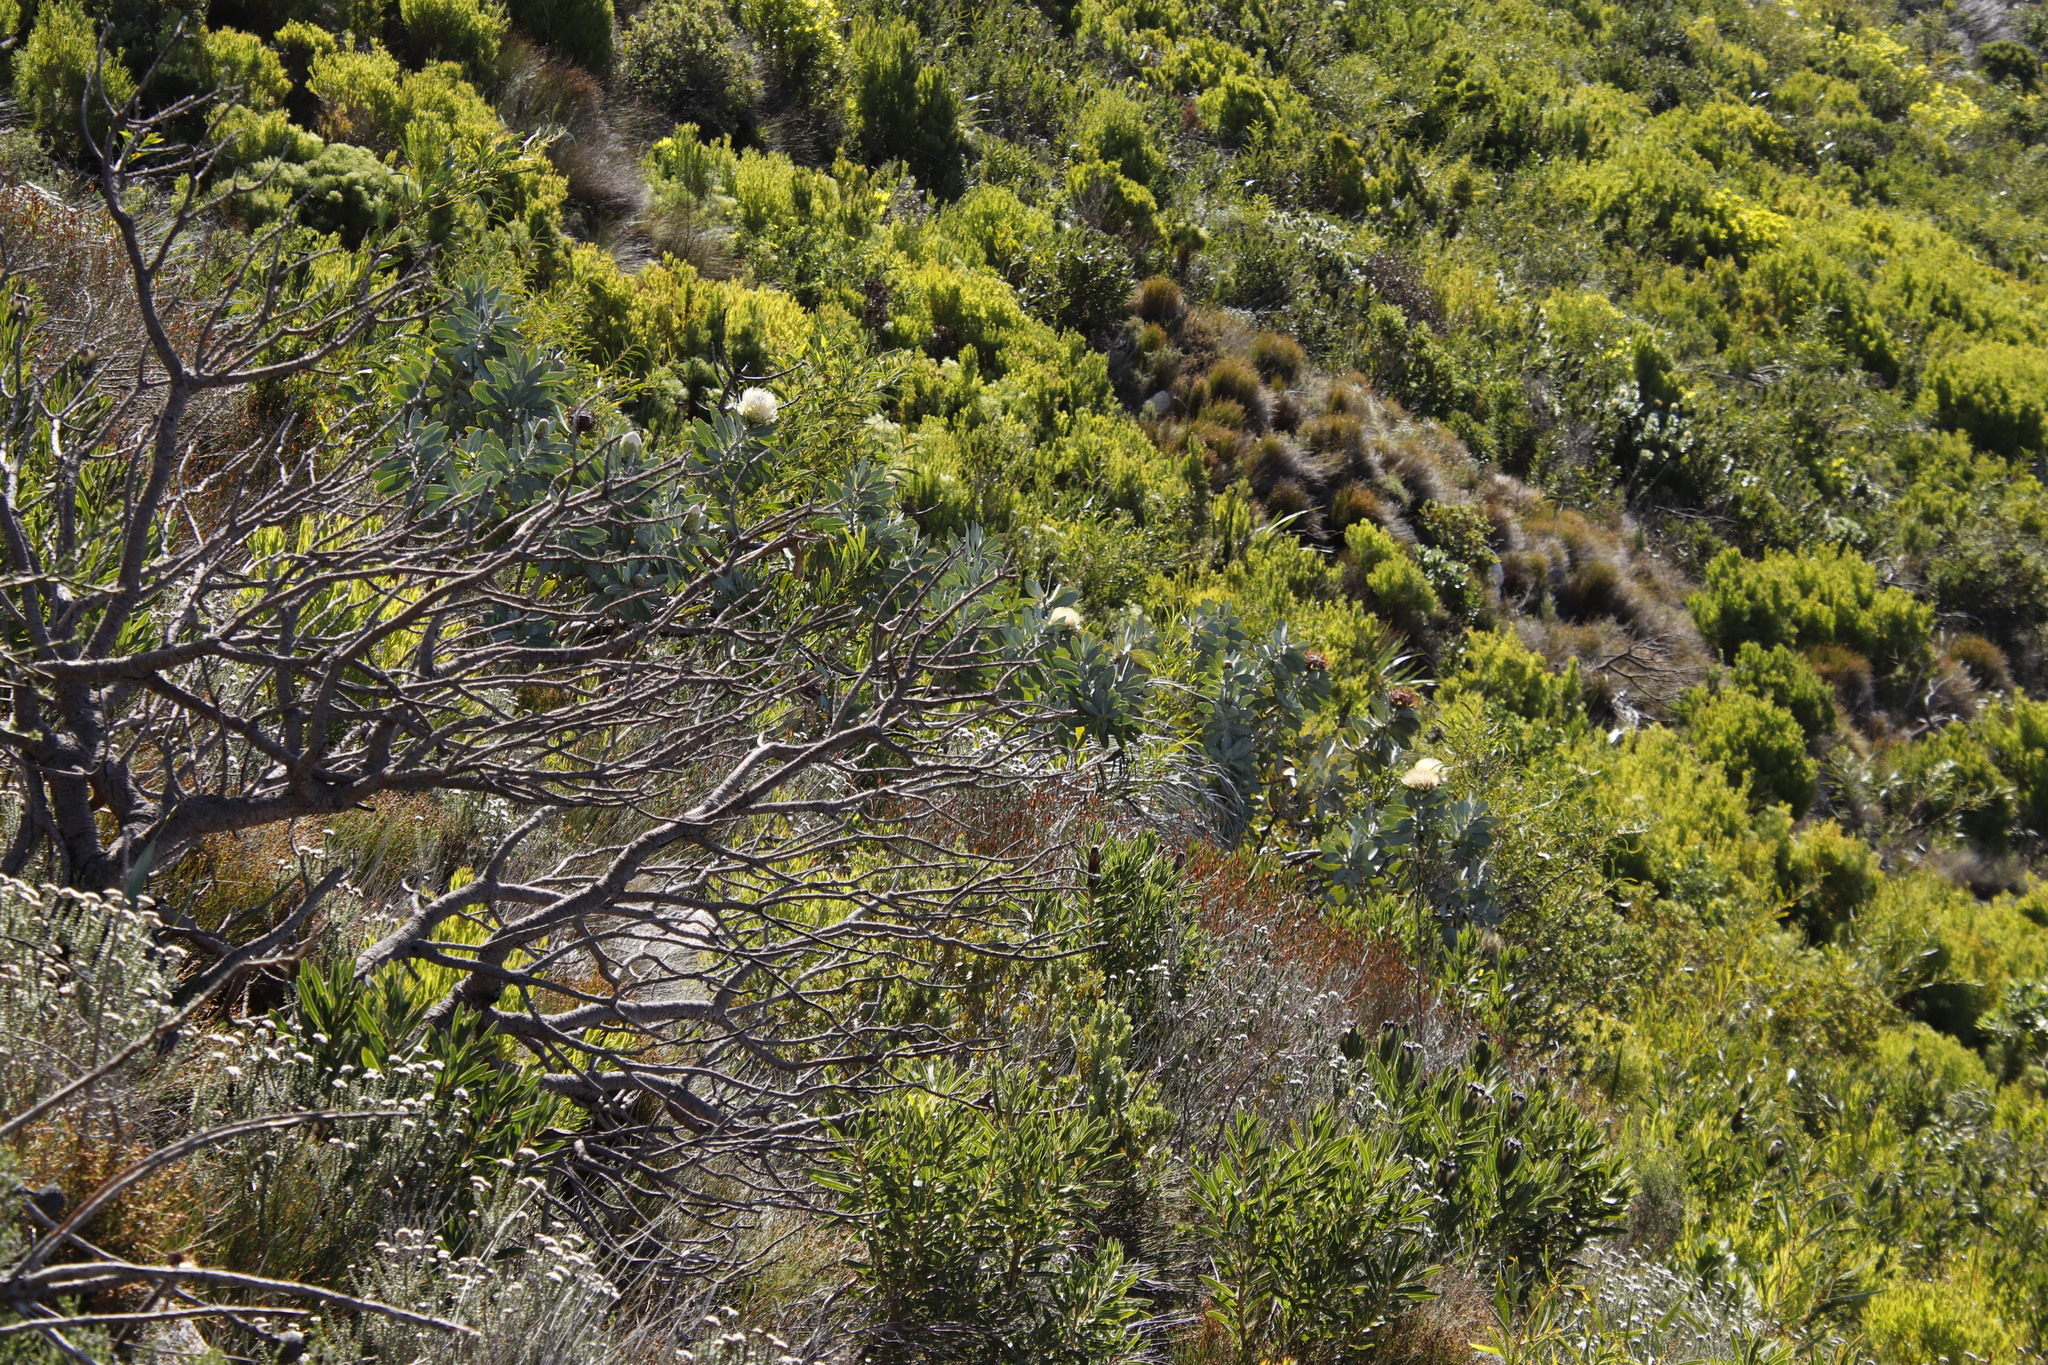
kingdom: Plantae
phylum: Tracheophyta
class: Magnoliopsida
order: Proteales
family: Proteaceae
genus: Protea
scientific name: Protea nitida
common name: Tree protea
